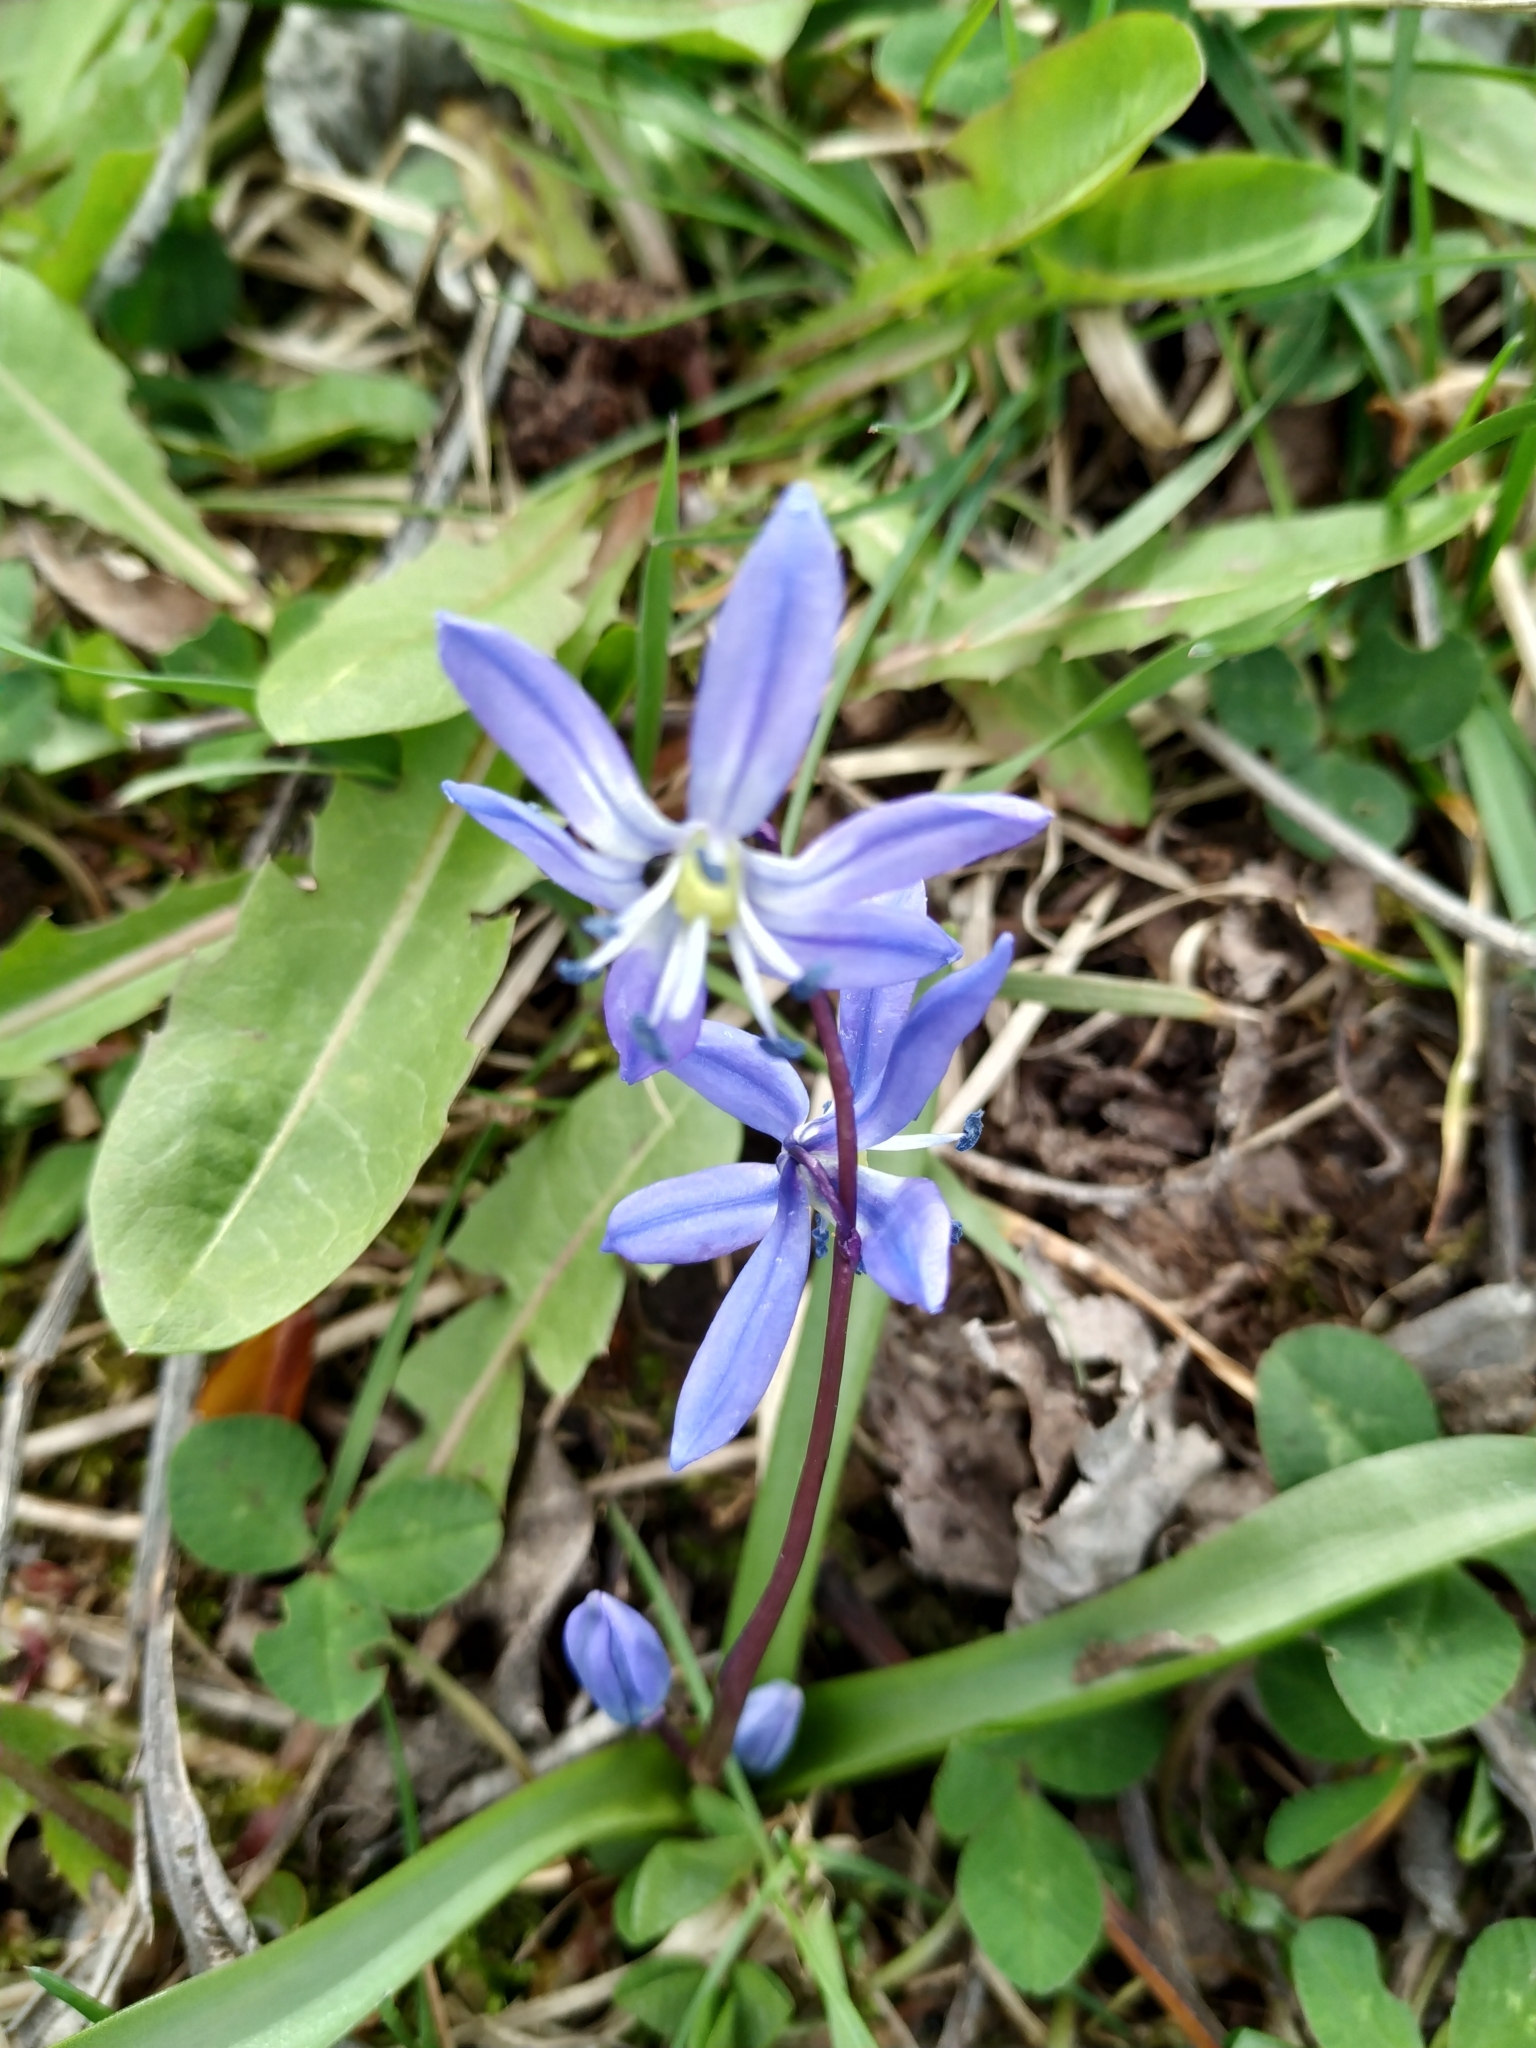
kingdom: Plantae
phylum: Tracheophyta
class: Liliopsida
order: Asparagales
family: Asparagaceae
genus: Scilla
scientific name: Scilla siberica
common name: Siberian squill
